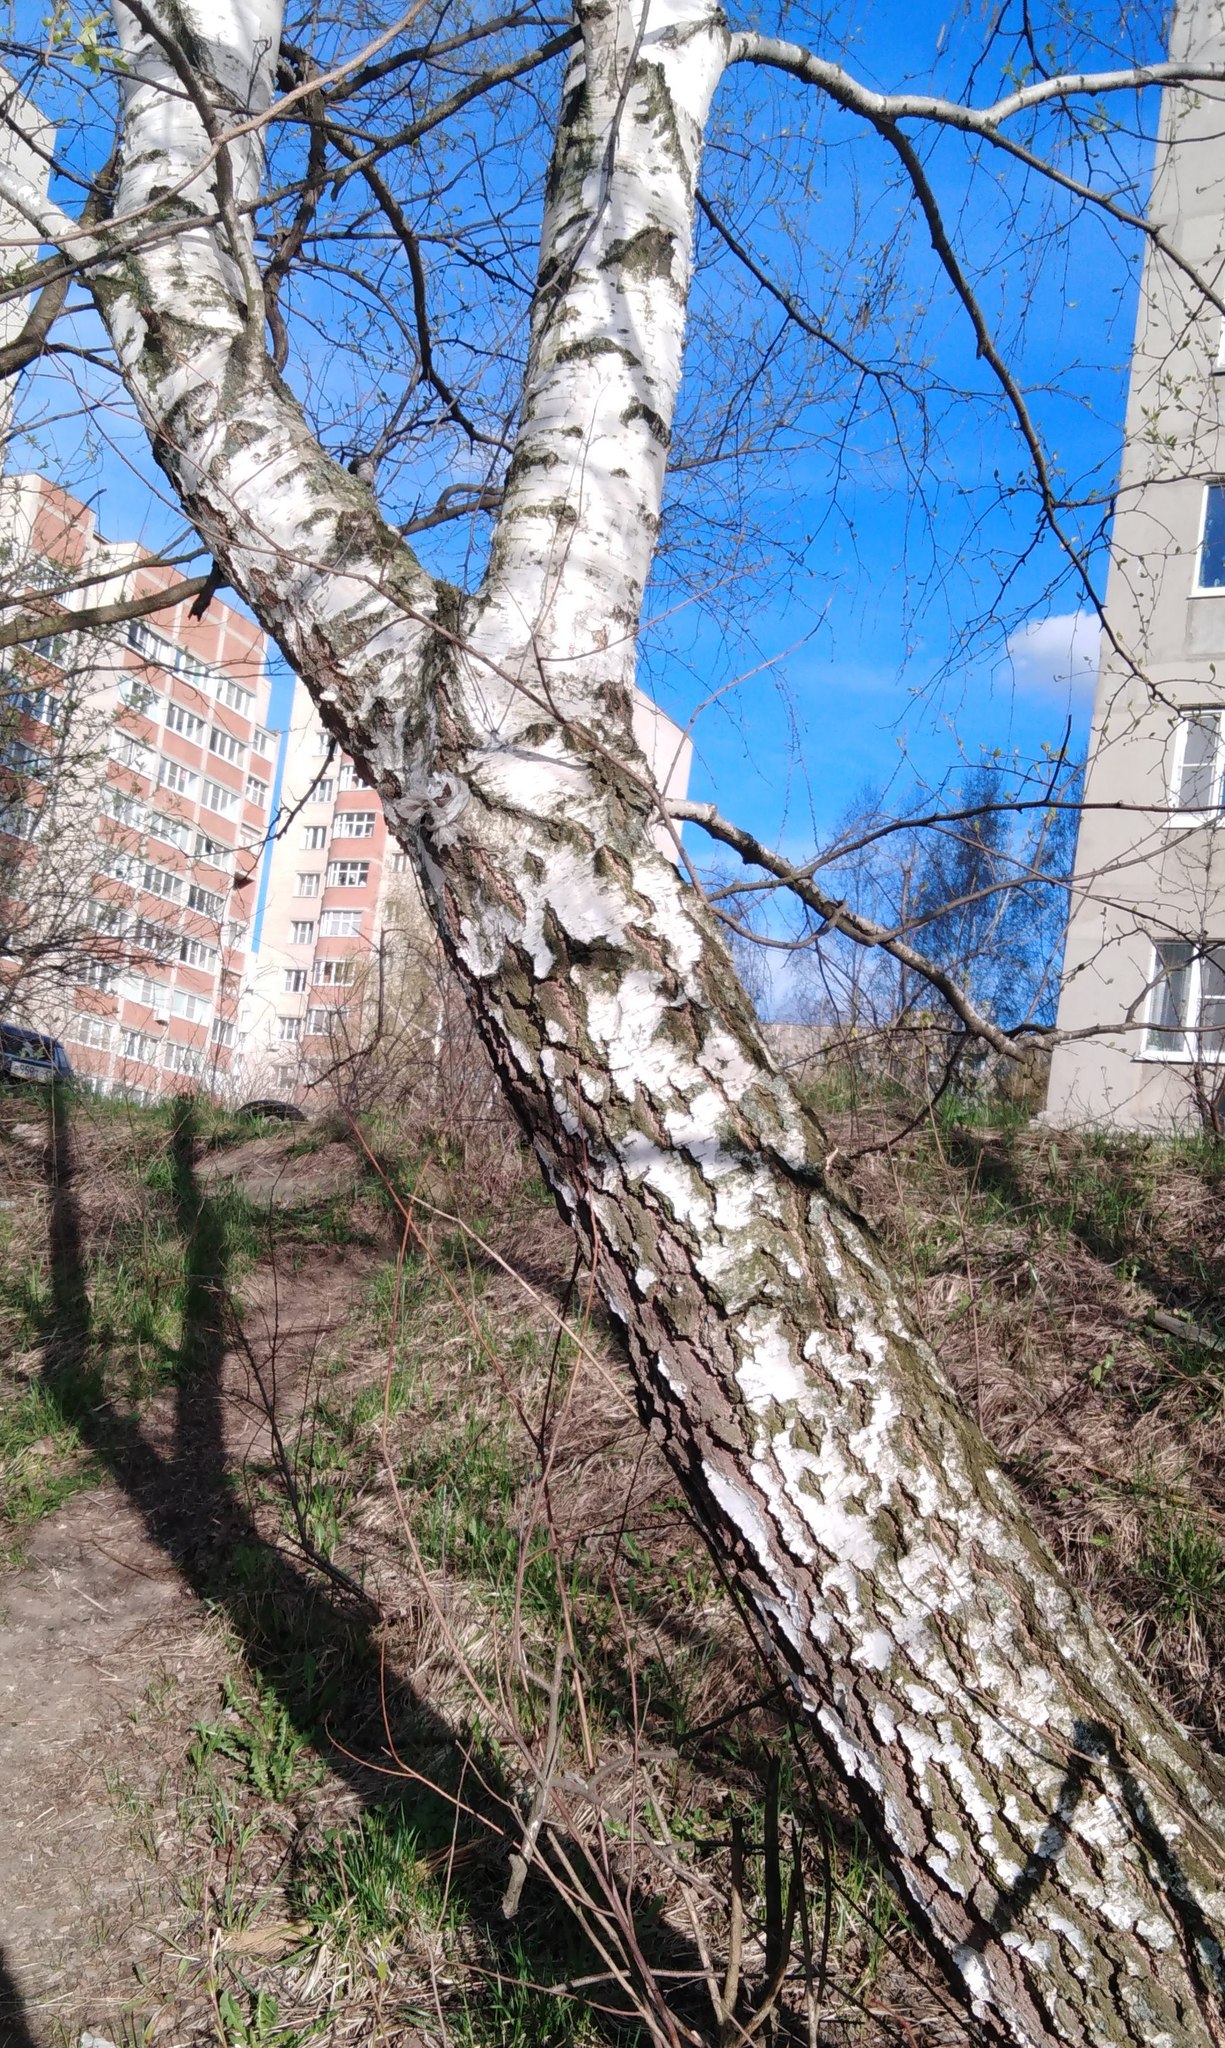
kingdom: Plantae
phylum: Tracheophyta
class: Magnoliopsida
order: Fagales
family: Betulaceae
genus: Betula
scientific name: Betula pendula
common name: Silver birch
